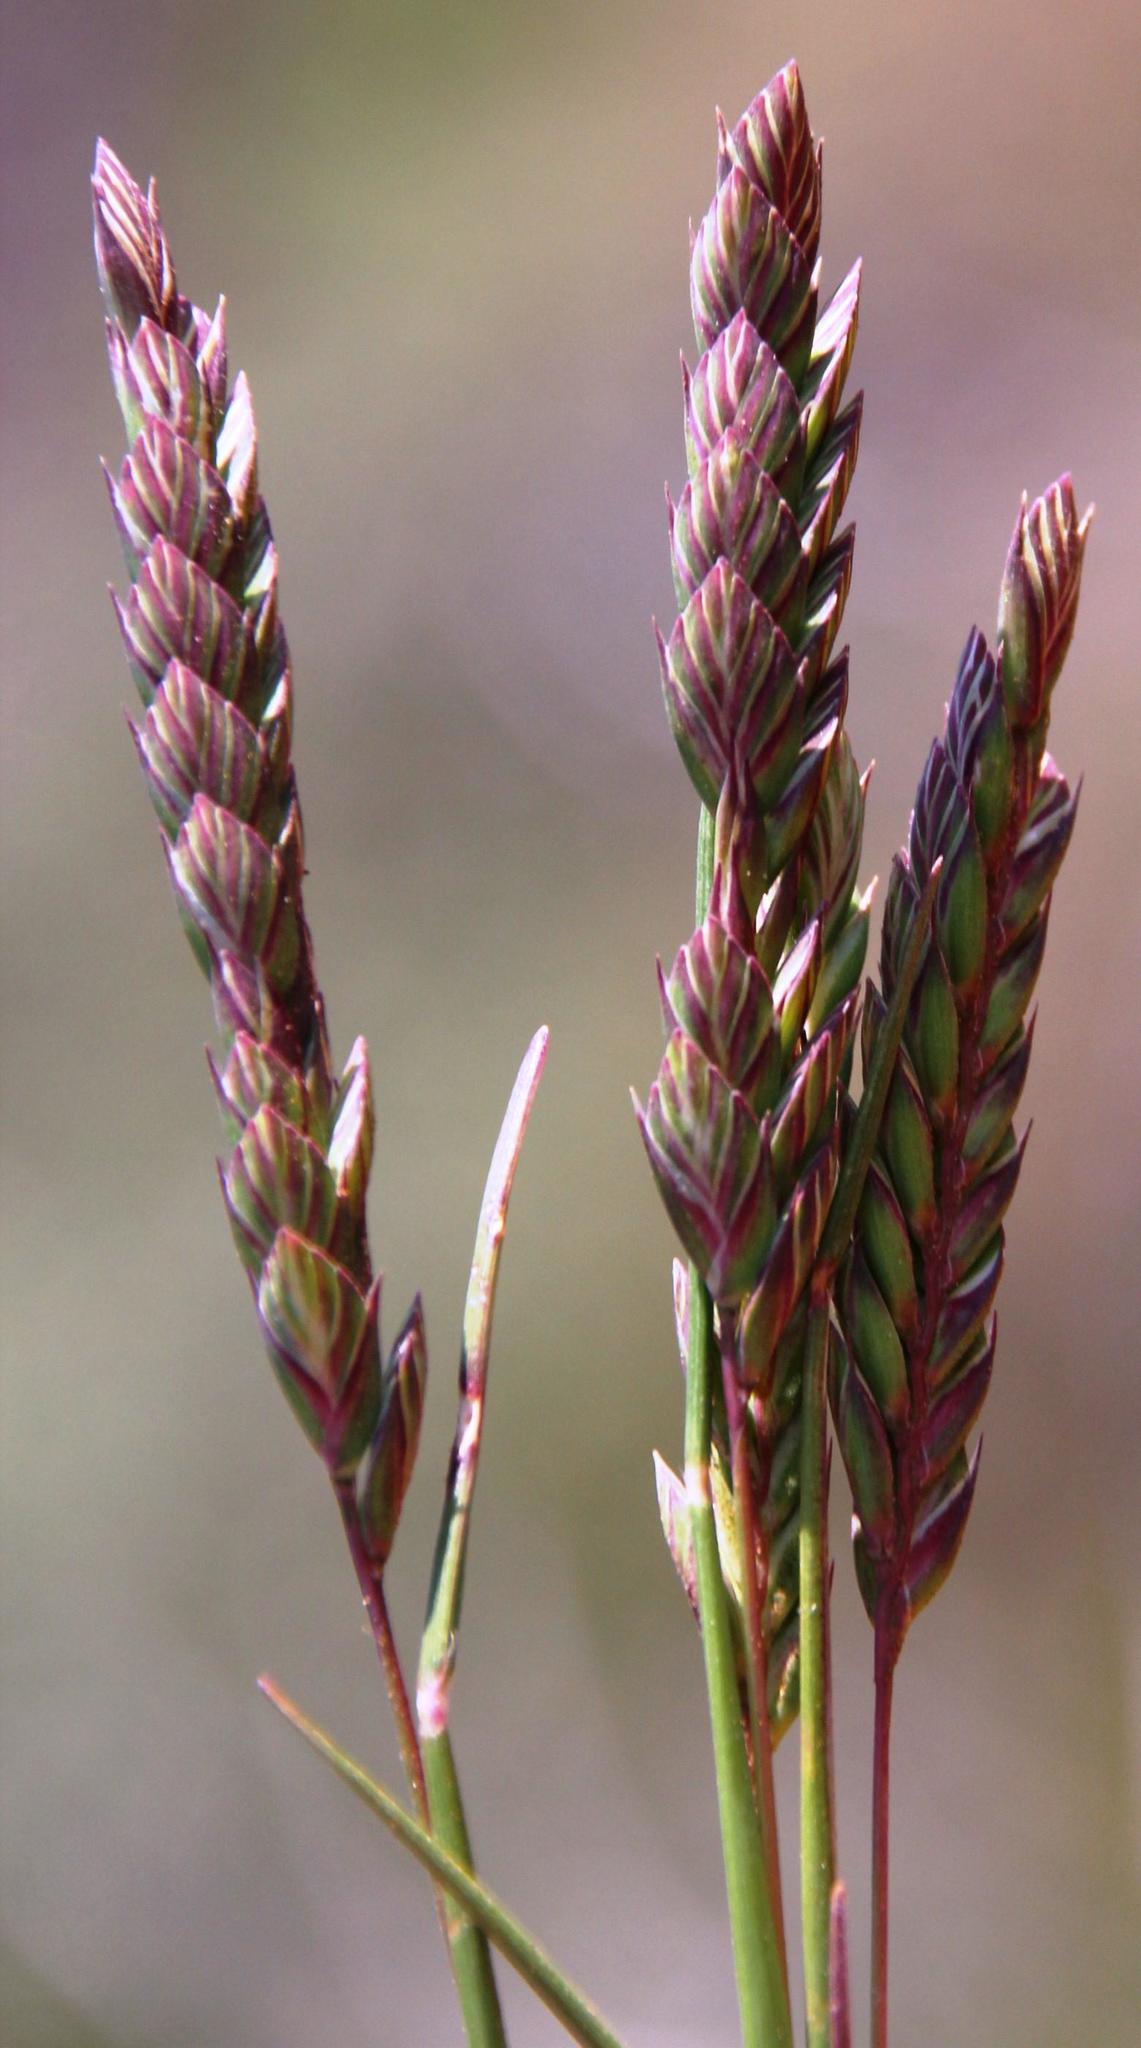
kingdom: Plantae
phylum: Tracheophyta
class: Liliopsida
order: Poales
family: Poaceae
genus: Tribolium
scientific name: Tribolium uniolae
